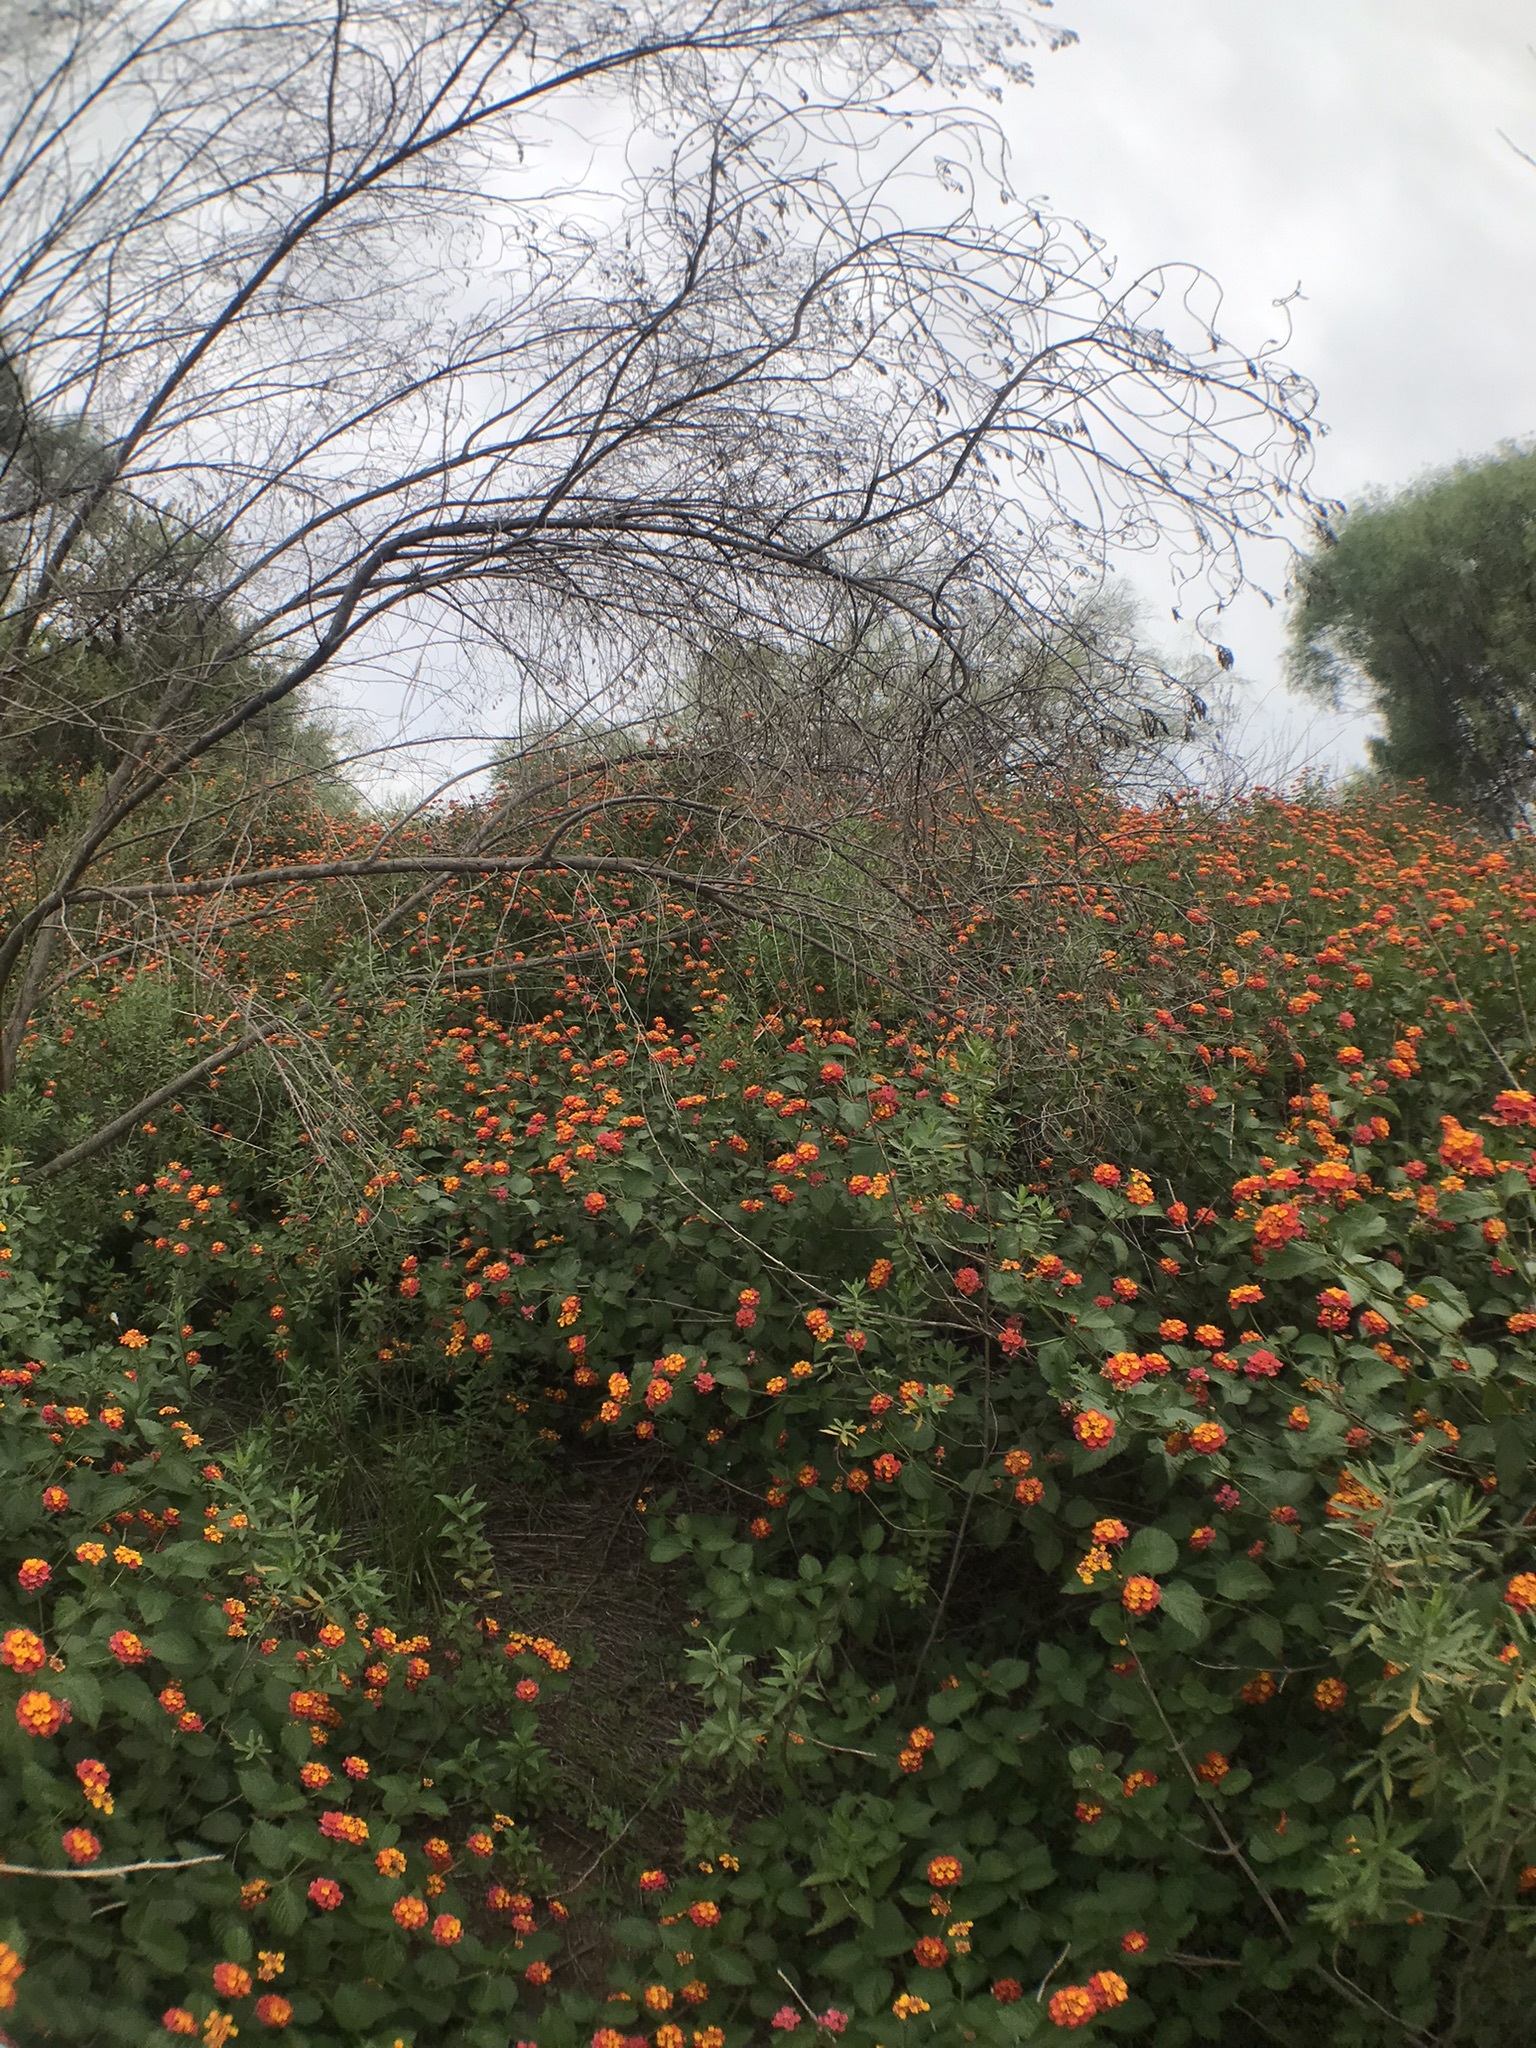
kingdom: Plantae
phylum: Tracheophyta
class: Magnoliopsida
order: Lamiales
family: Verbenaceae
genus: Lantana
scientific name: Lantana camara
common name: Lantana
